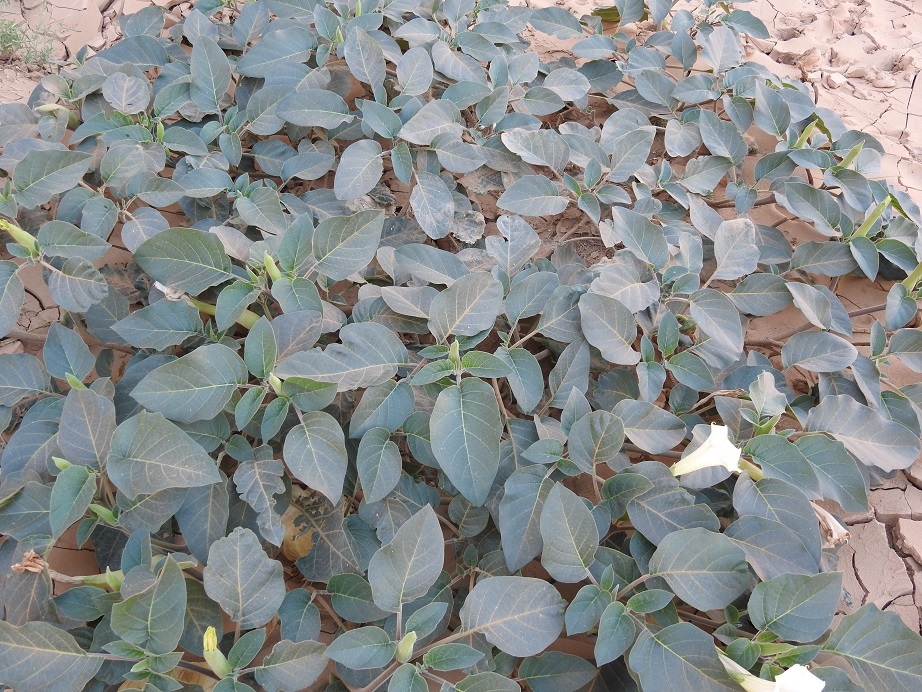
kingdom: Plantae
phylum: Tracheophyta
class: Magnoliopsida
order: Solanales
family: Solanaceae
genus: Datura
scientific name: Datura innoxia
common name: Downy thorn-apple
